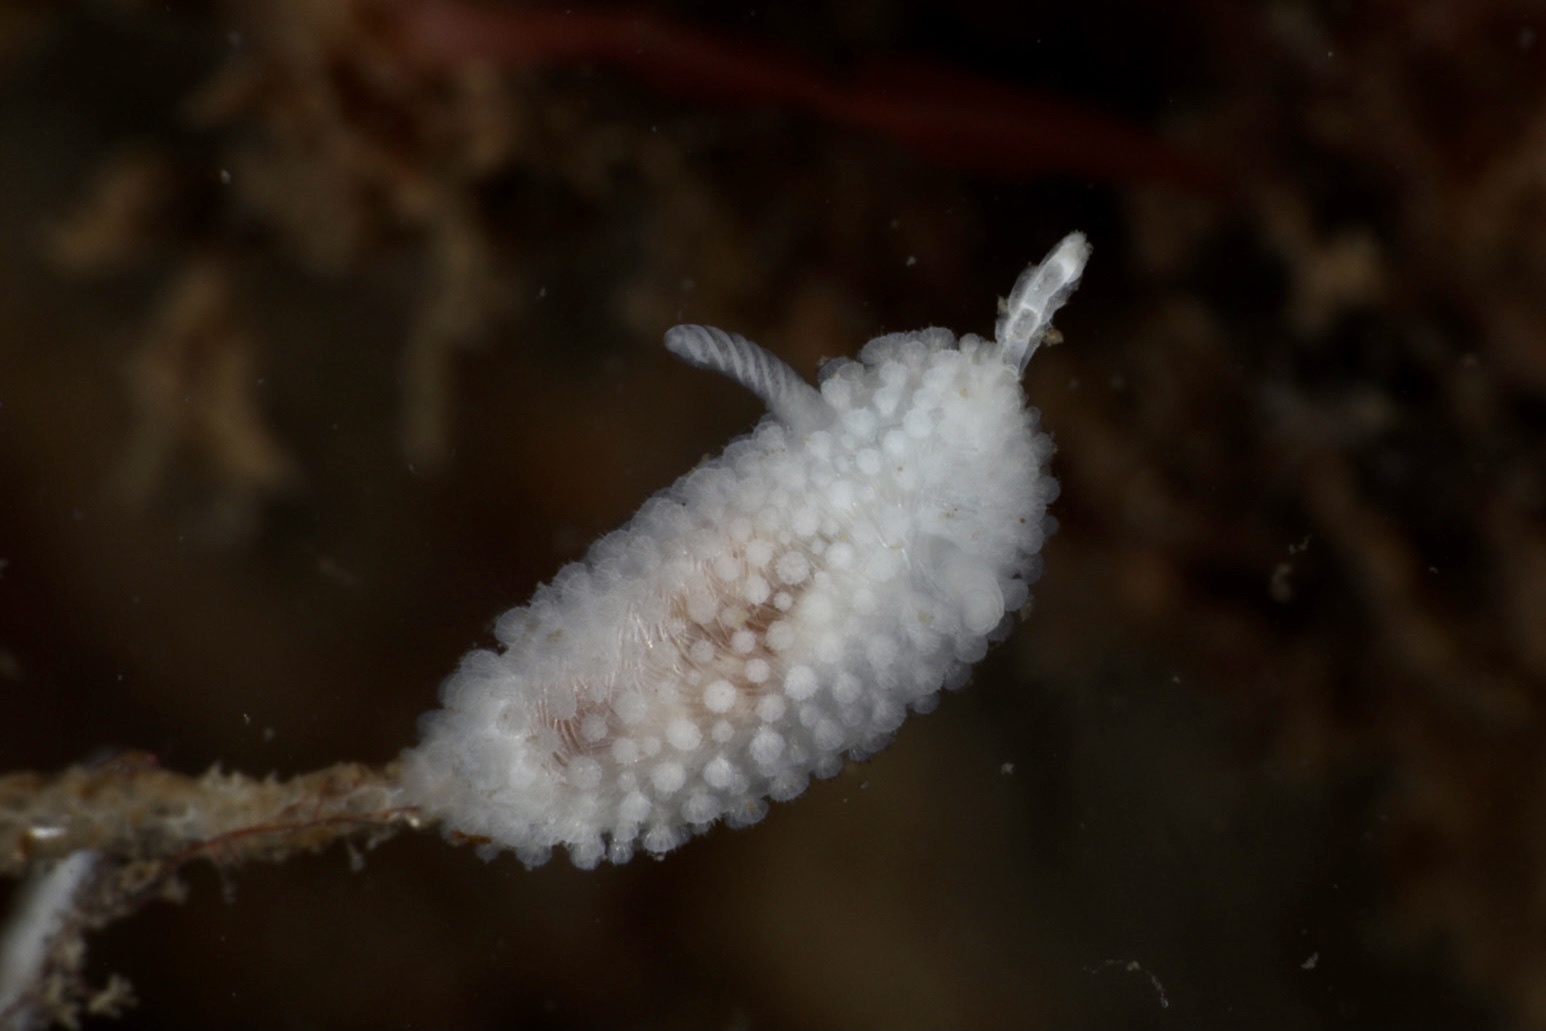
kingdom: Animalia
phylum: Mollusca
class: Gastropoda
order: Nudibranchia
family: Onchidorididae
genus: Onchidoris
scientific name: Onchidoris muricata
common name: Rough doris
